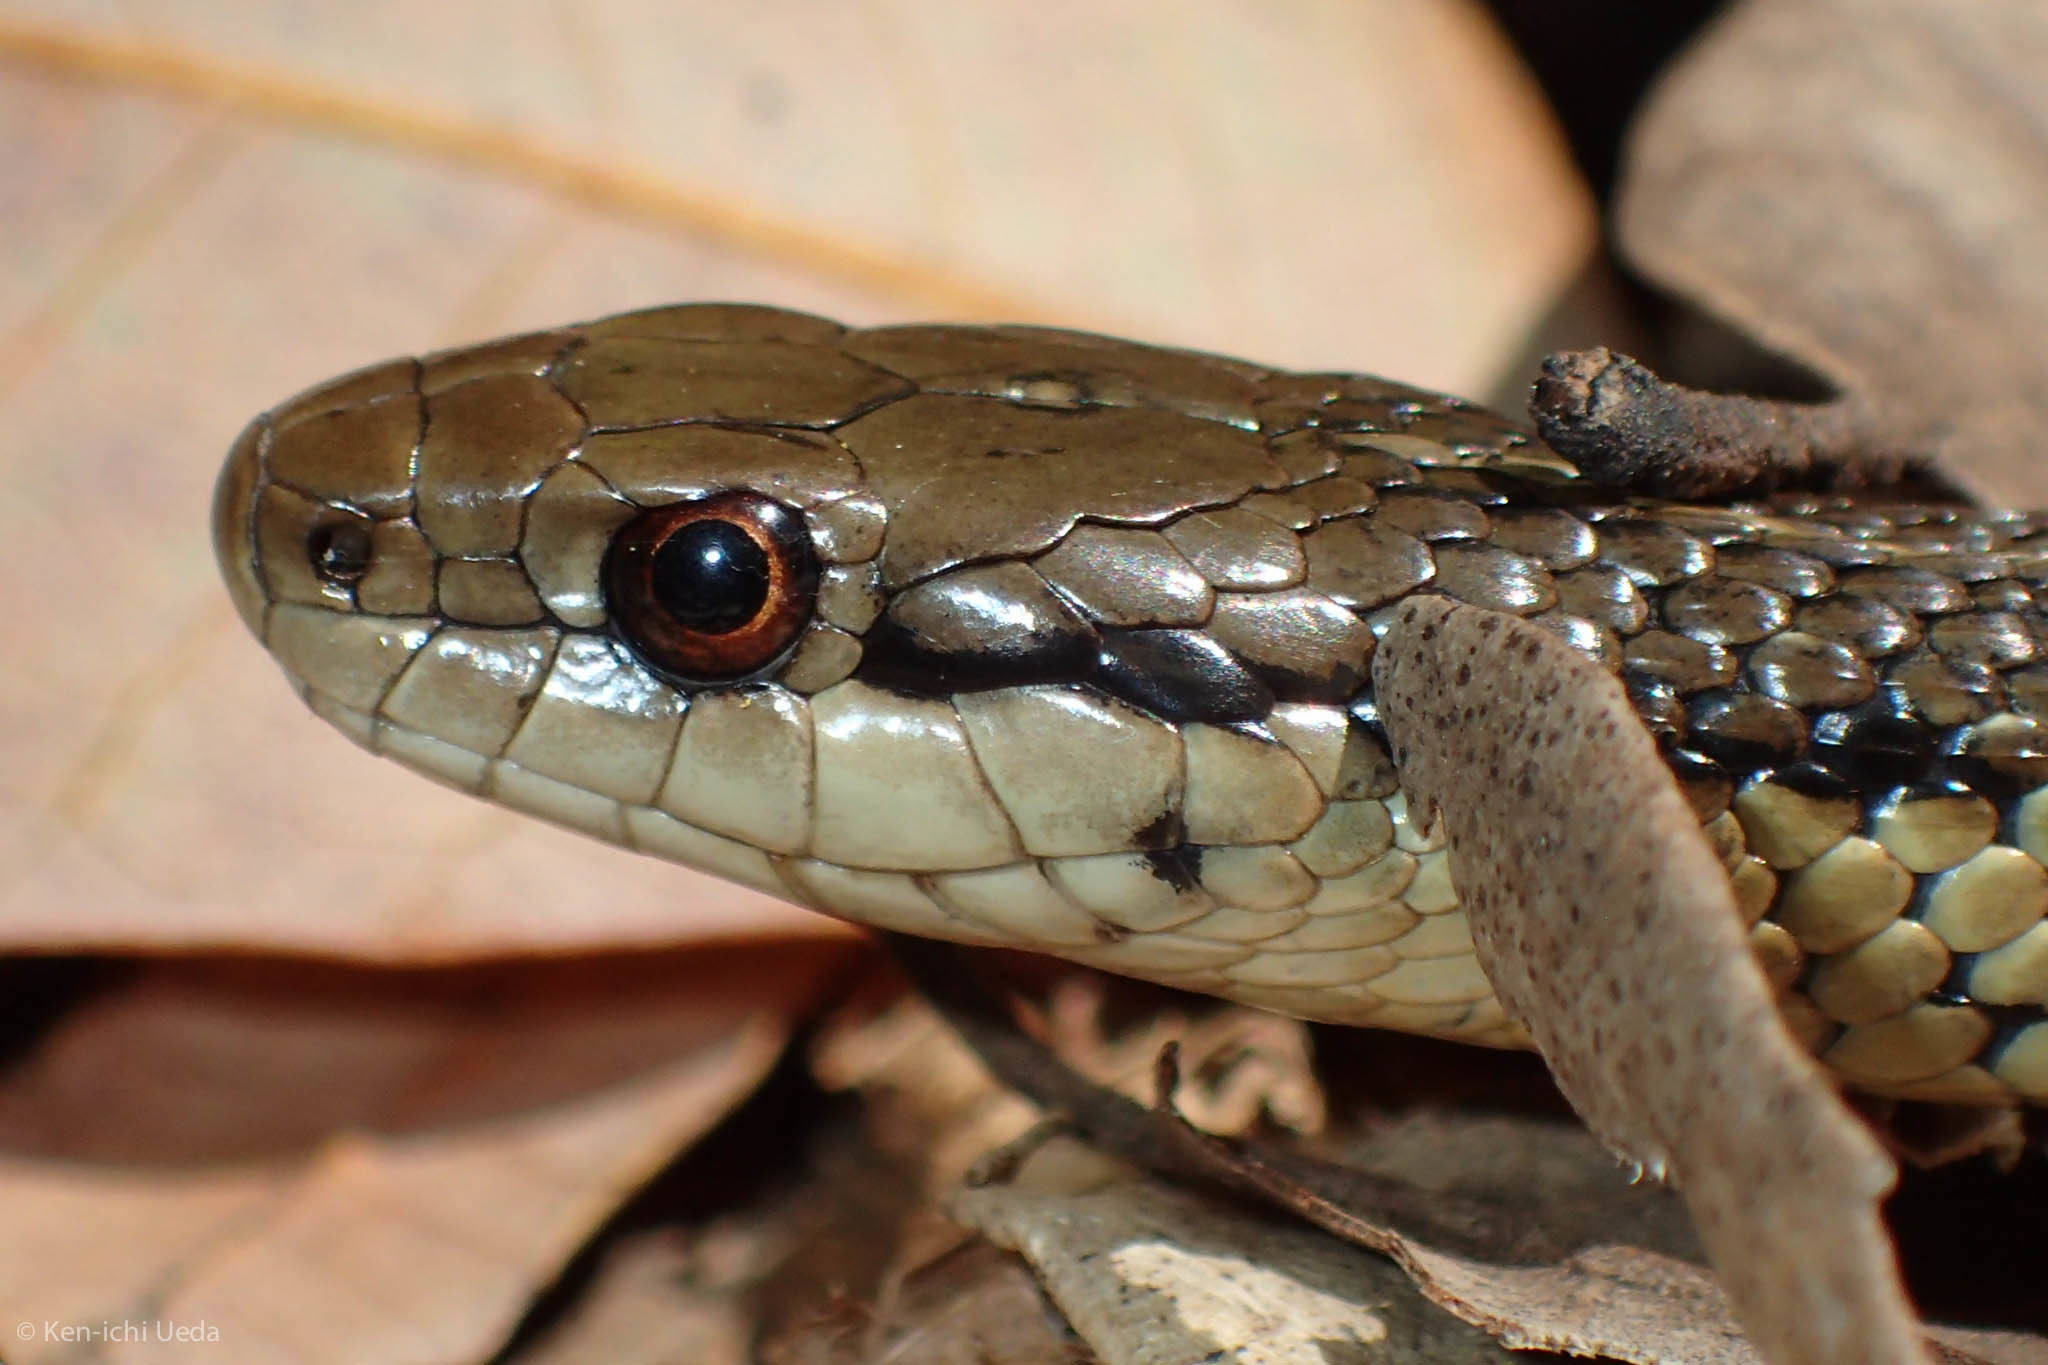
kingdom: Animalia
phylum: Chordata
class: Squamata
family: Colubridae
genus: Thamnophis
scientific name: Thamnophis ordinoides
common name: Northwestern garter snake
